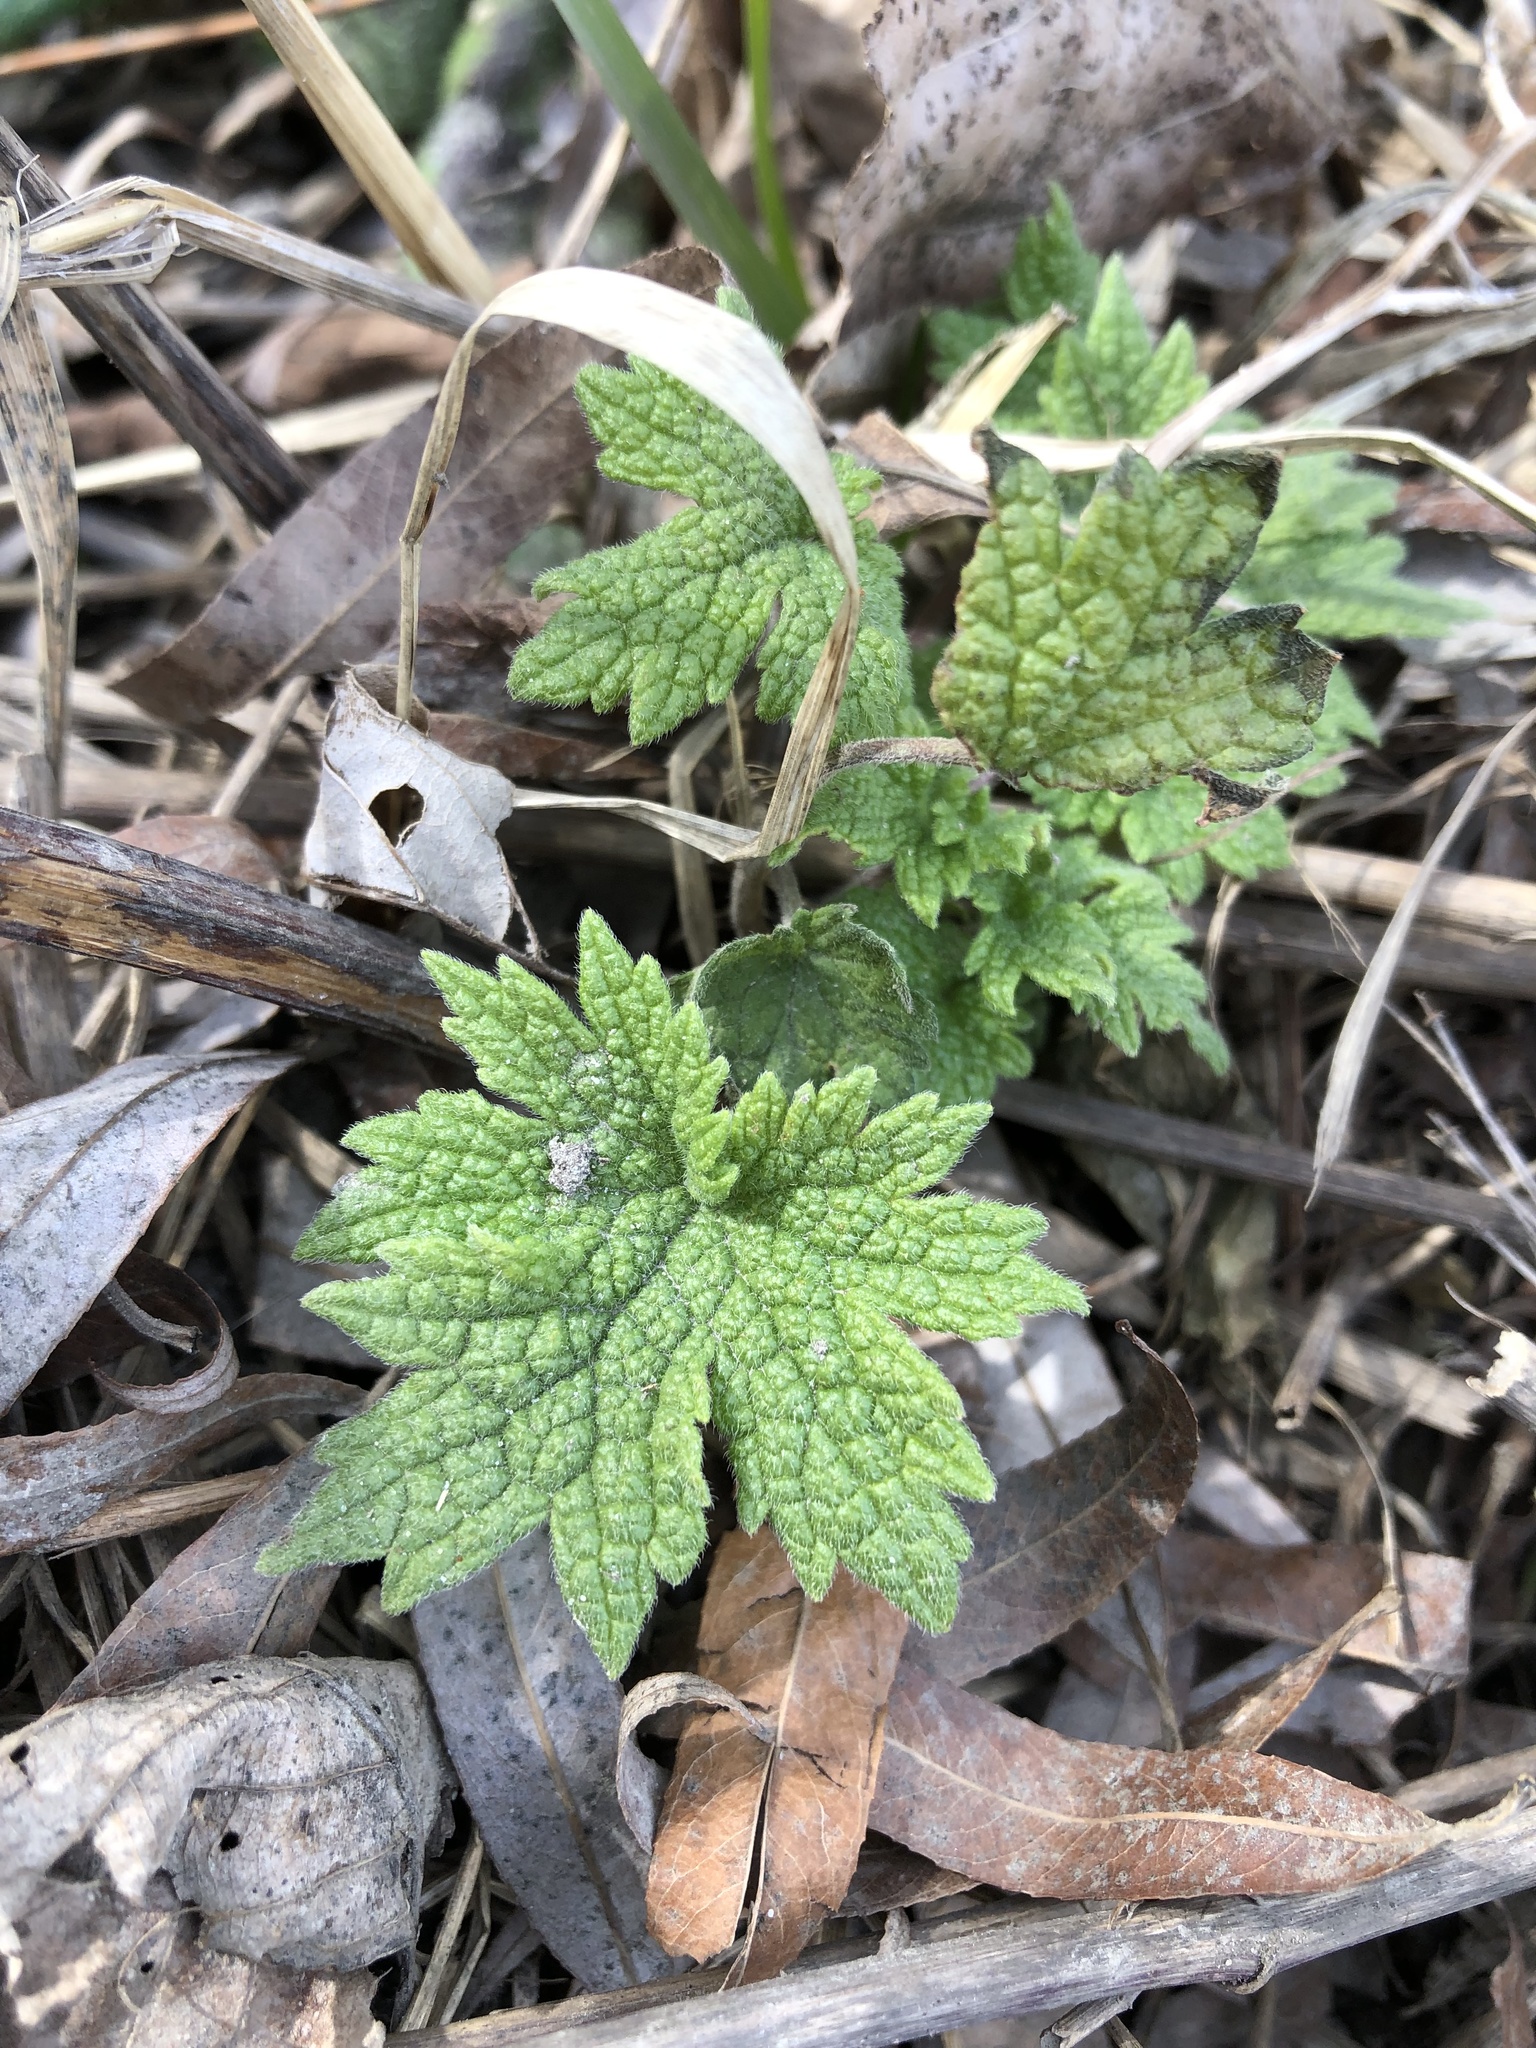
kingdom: Plantae
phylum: Tracheophyta
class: Magnoliopsida
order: Lamiales
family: Lamiaceae
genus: Leonurus
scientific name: Leonurus cardiaca
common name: Motherwort
